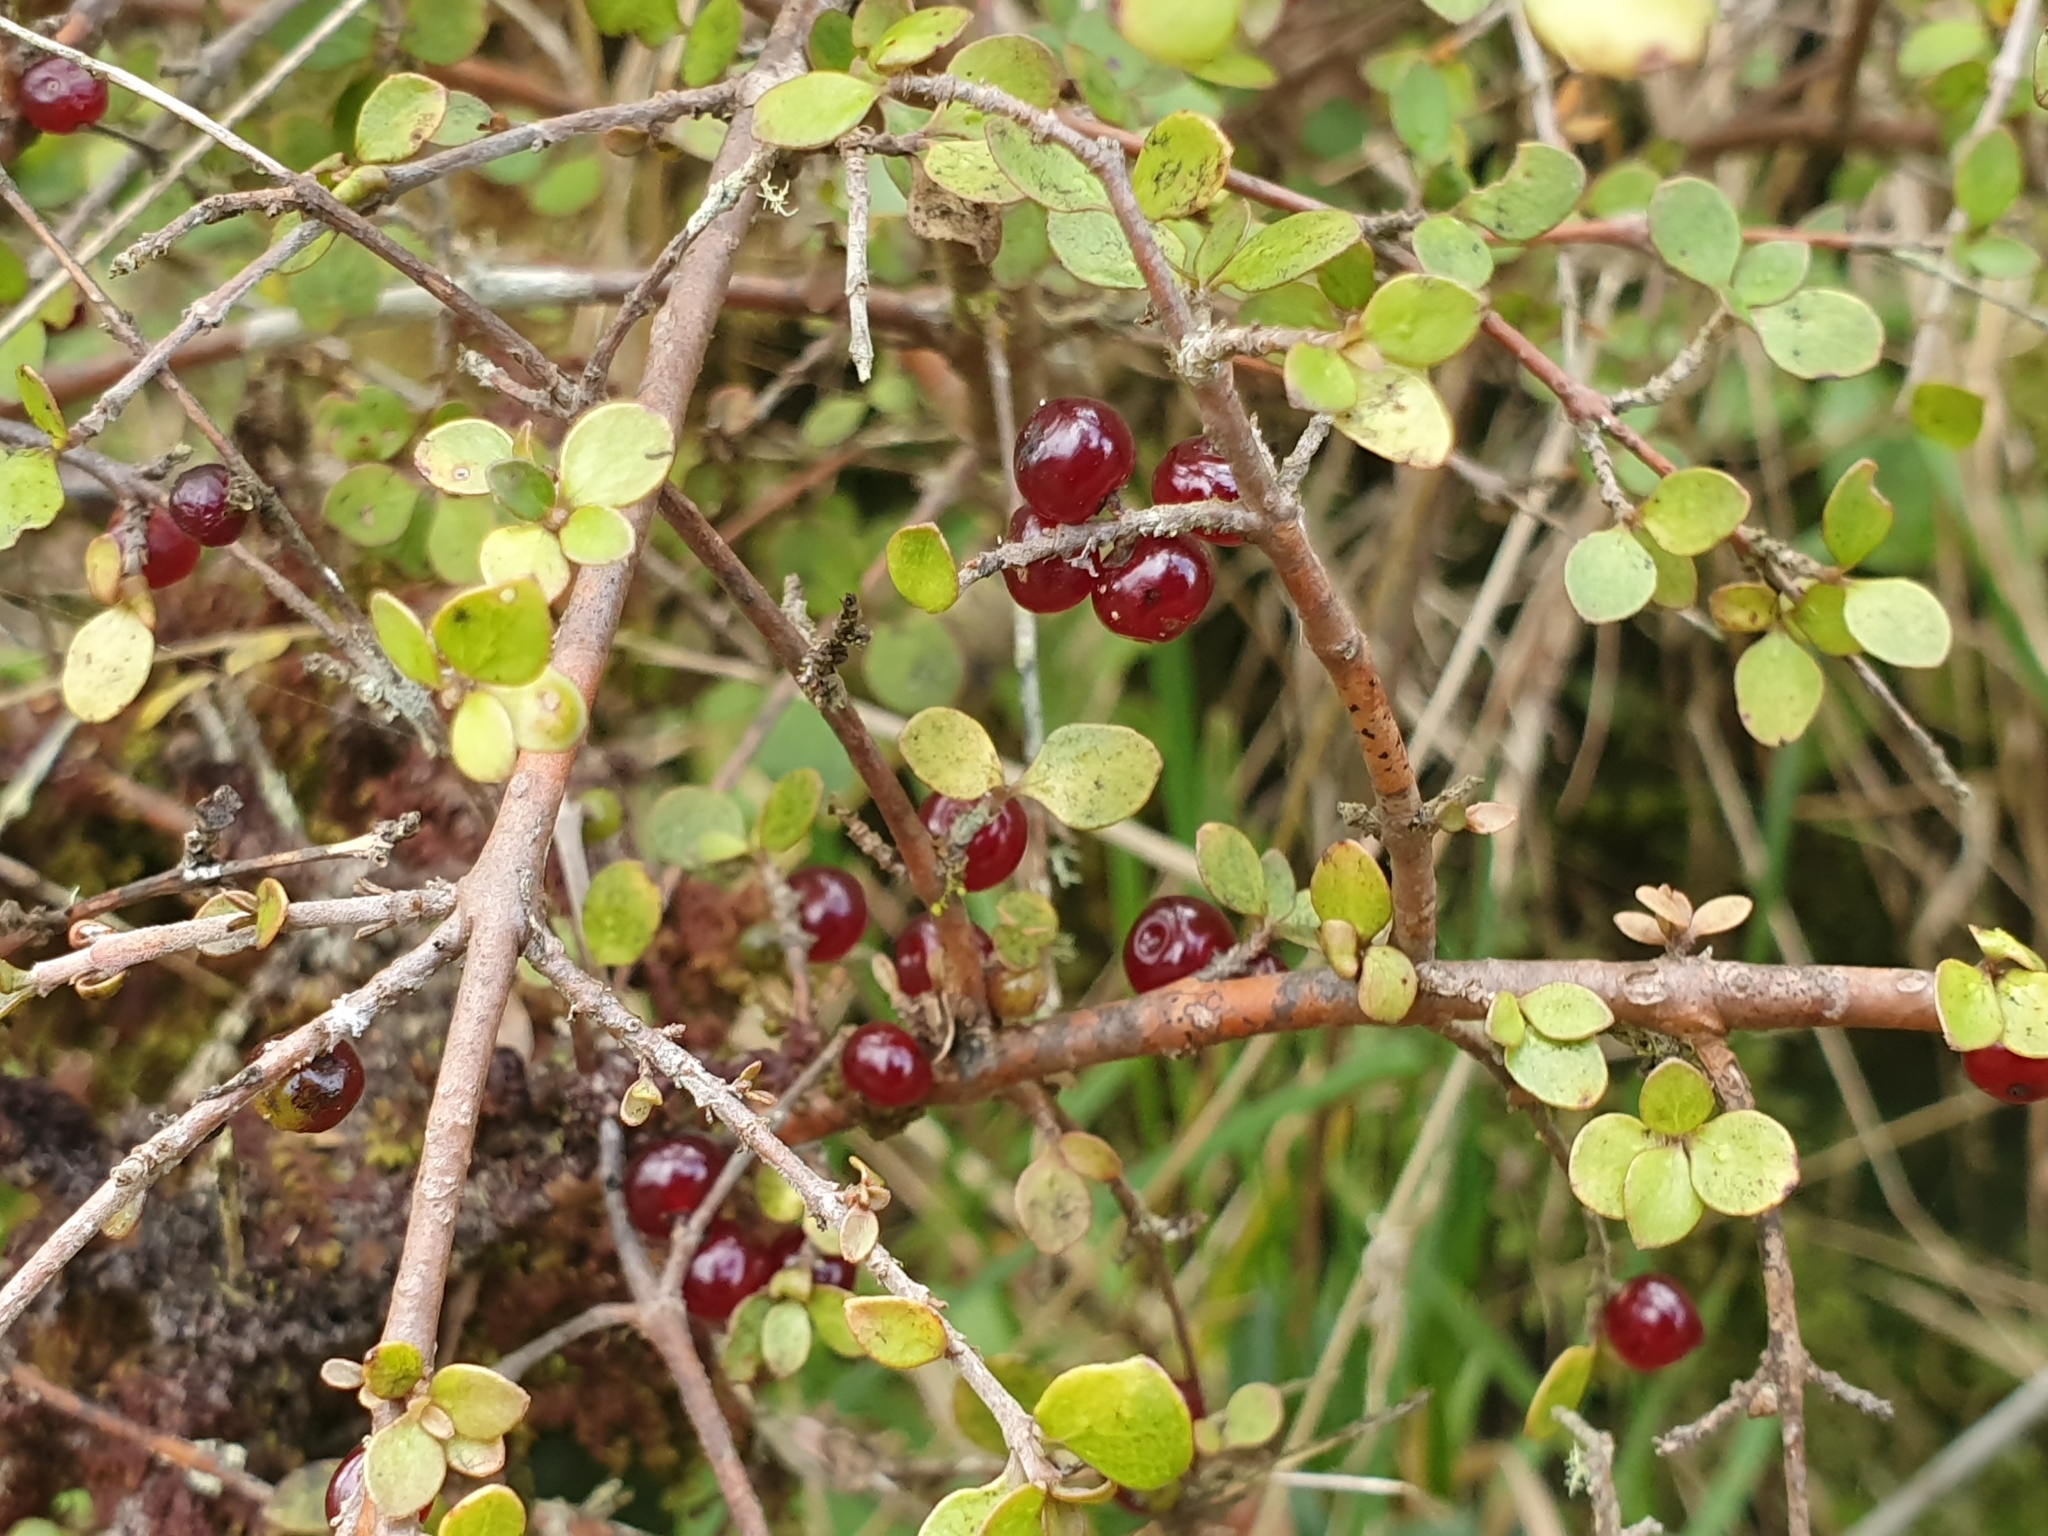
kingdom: Plantae
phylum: Tracheophyta
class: Magnoliopsida
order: Gentianales
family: Rubiaceae
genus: Coprosma
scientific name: Coprosma rhamnoides
